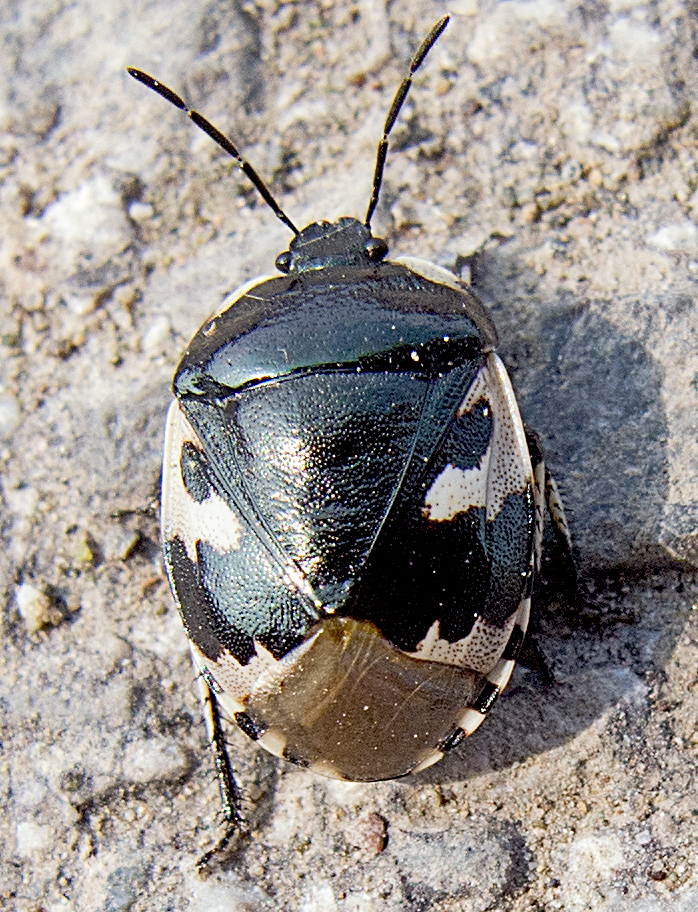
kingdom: Animalia
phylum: Arthropoda
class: Insecta
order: Hemiptera
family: Cydnidae
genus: Tritomegas
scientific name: Tritomegas bicolor
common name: Pied shieldbug
